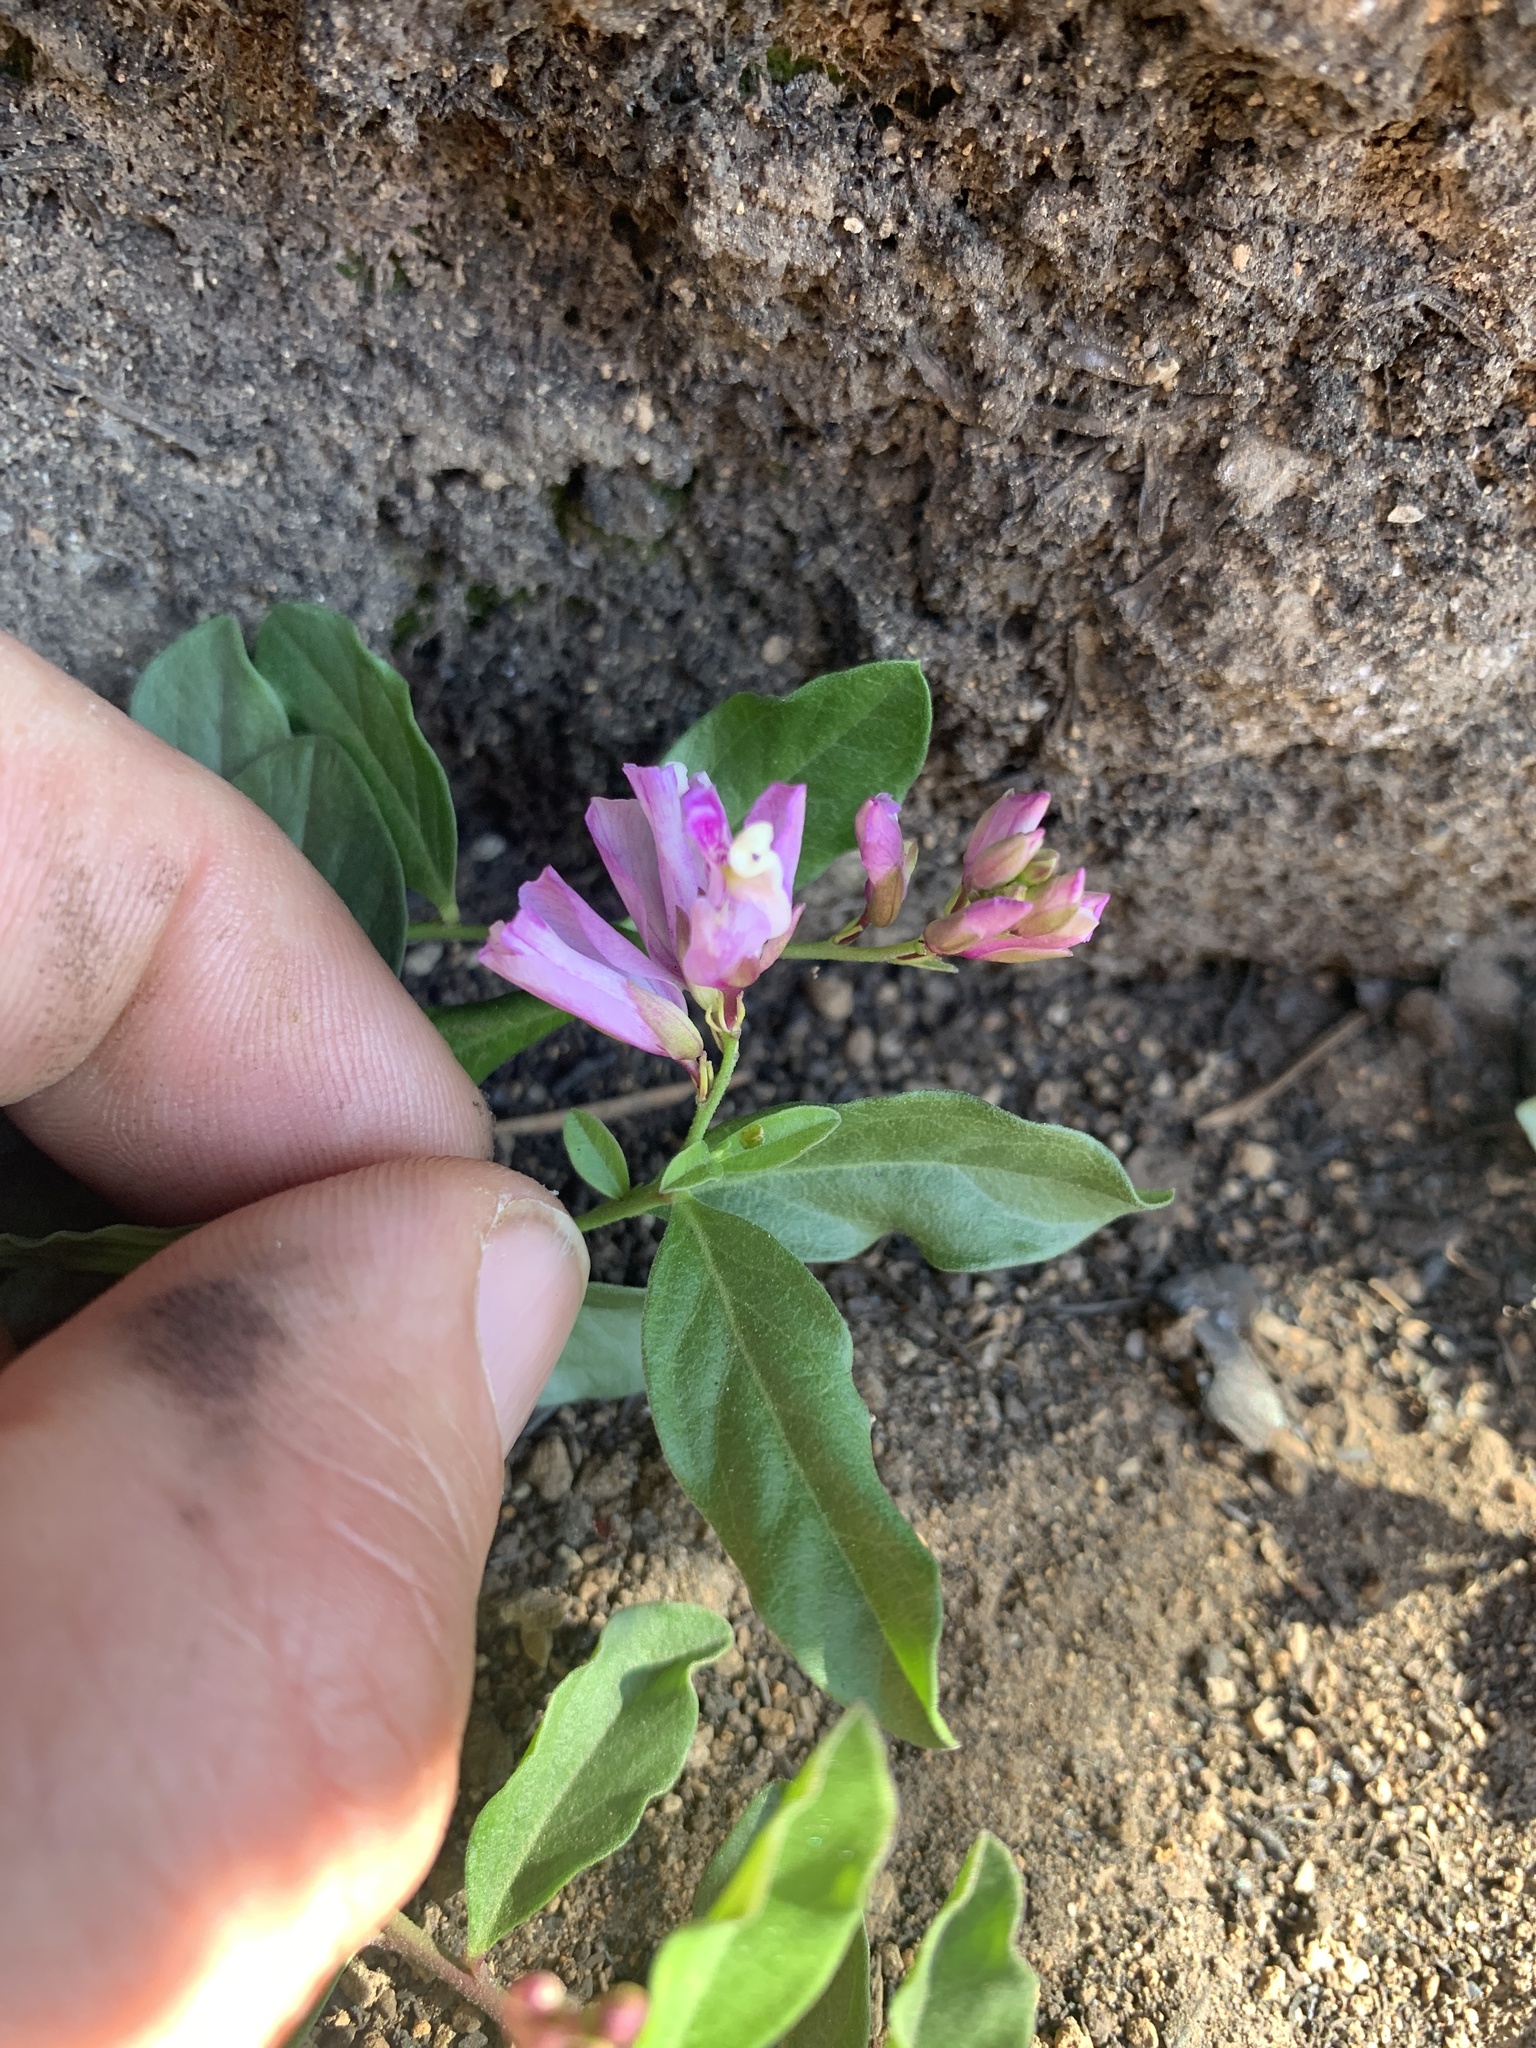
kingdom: Plantae
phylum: Tracheophyta
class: Magnoliopsida
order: Fabales
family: Polygalaceae
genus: Rhinotropis
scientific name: Rhinotropis californica
